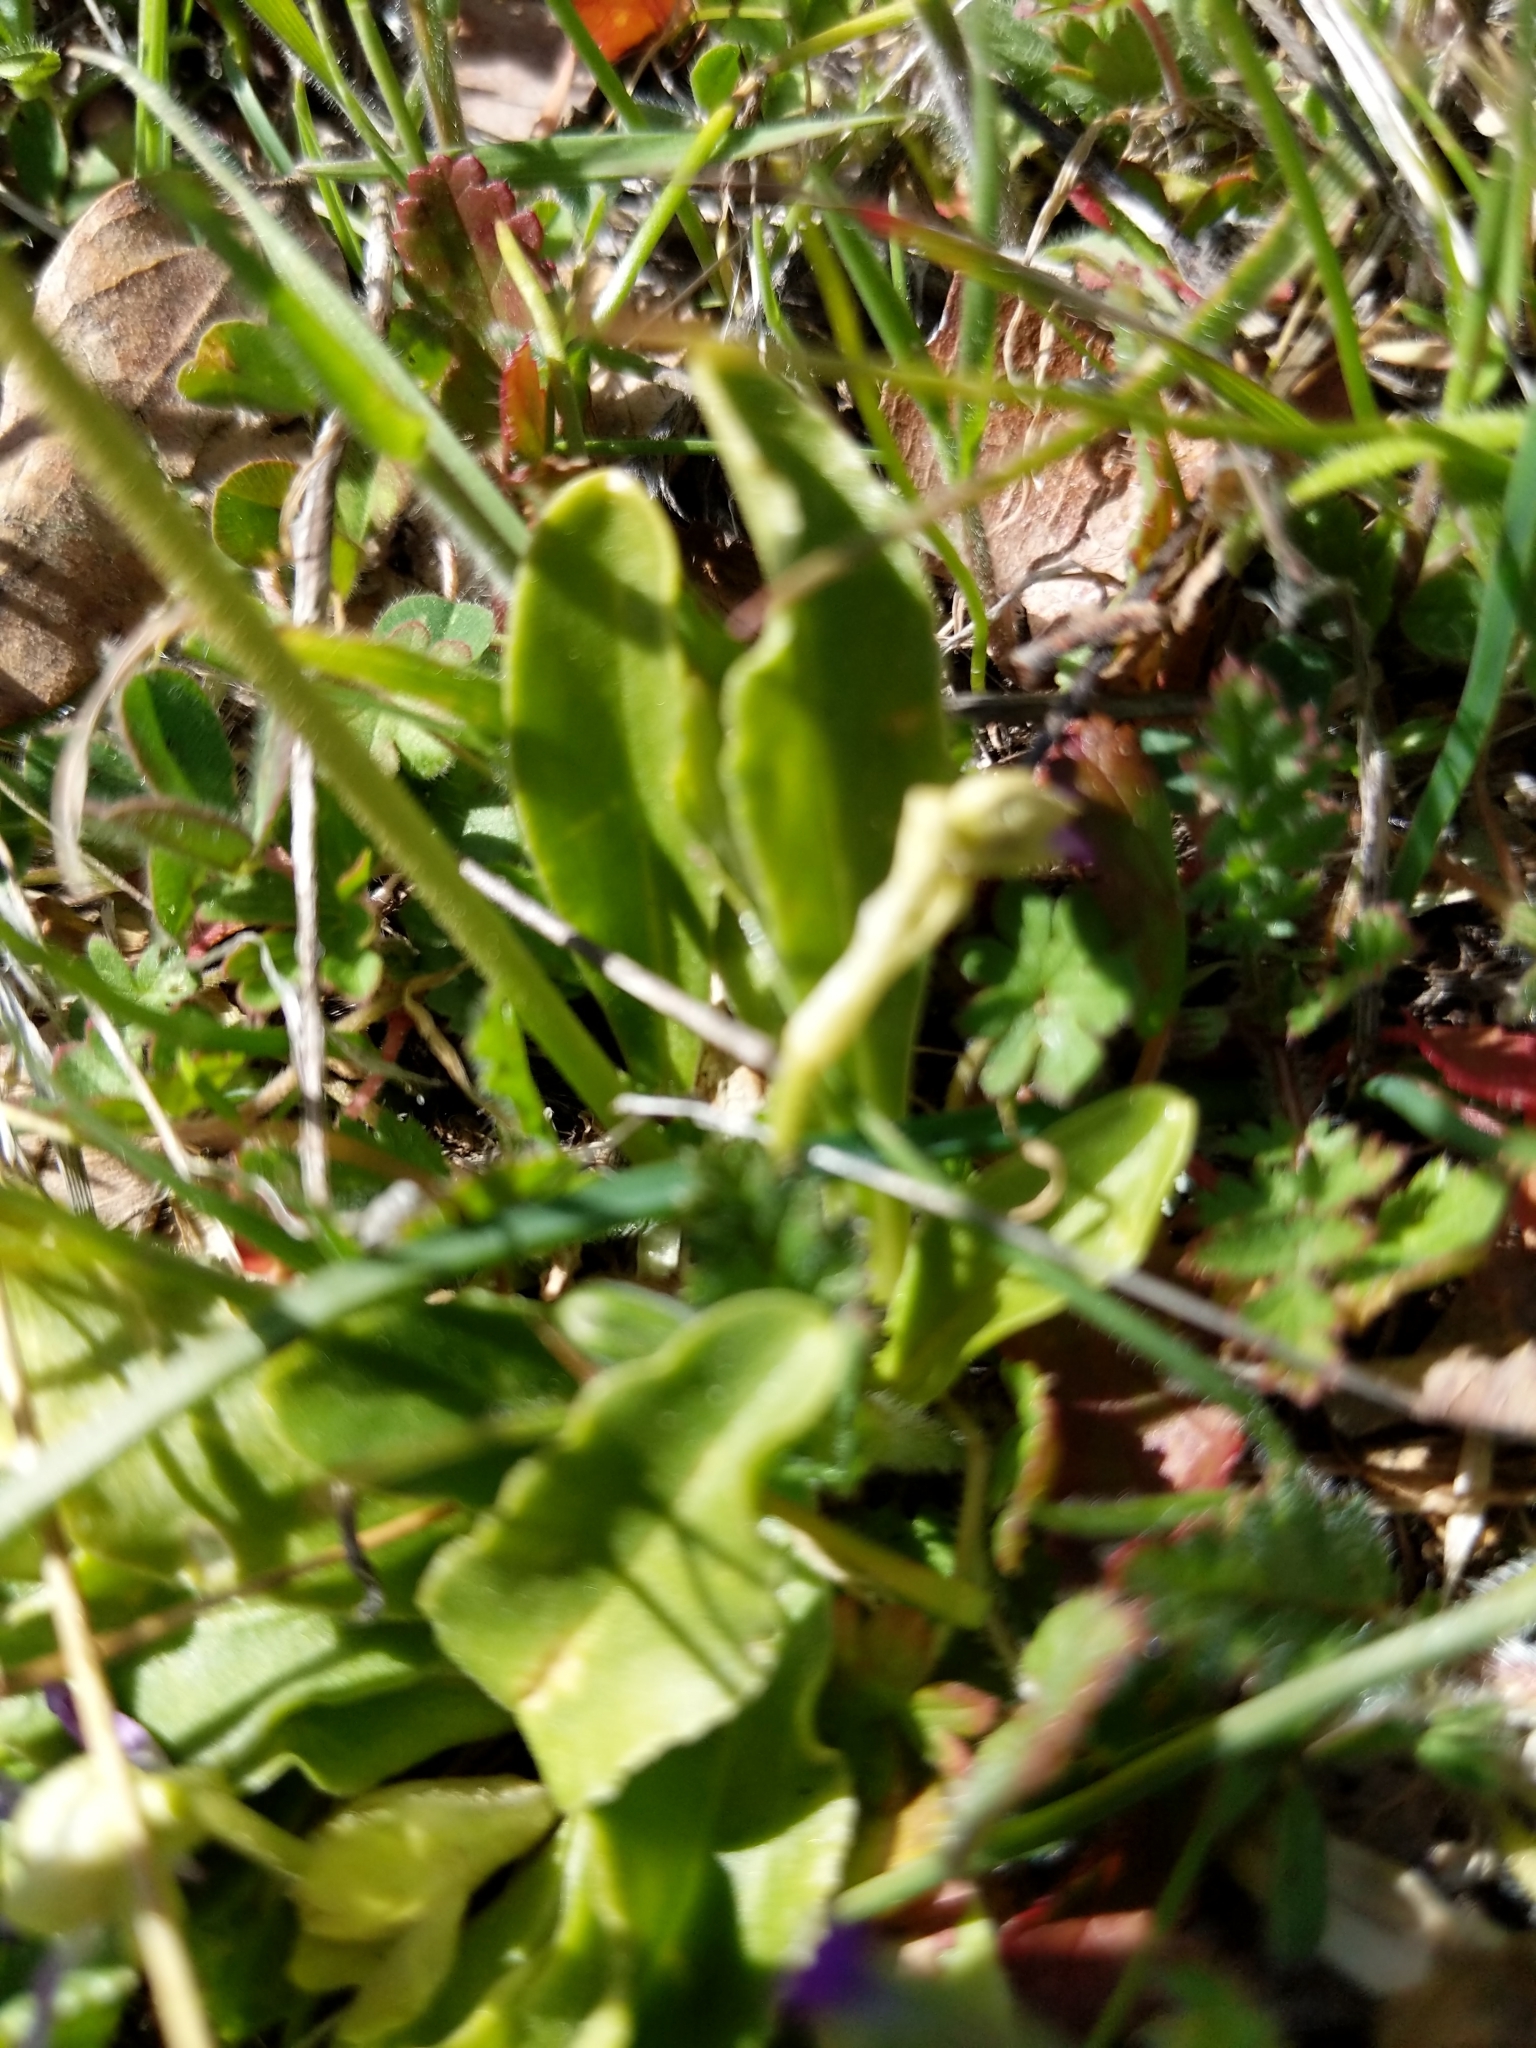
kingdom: Plantae
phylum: Tracheophyta
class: Magnoliopsida
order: Ericales
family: Primulaceae
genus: Dodecatheon
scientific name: Dodecatheon clevelandii
